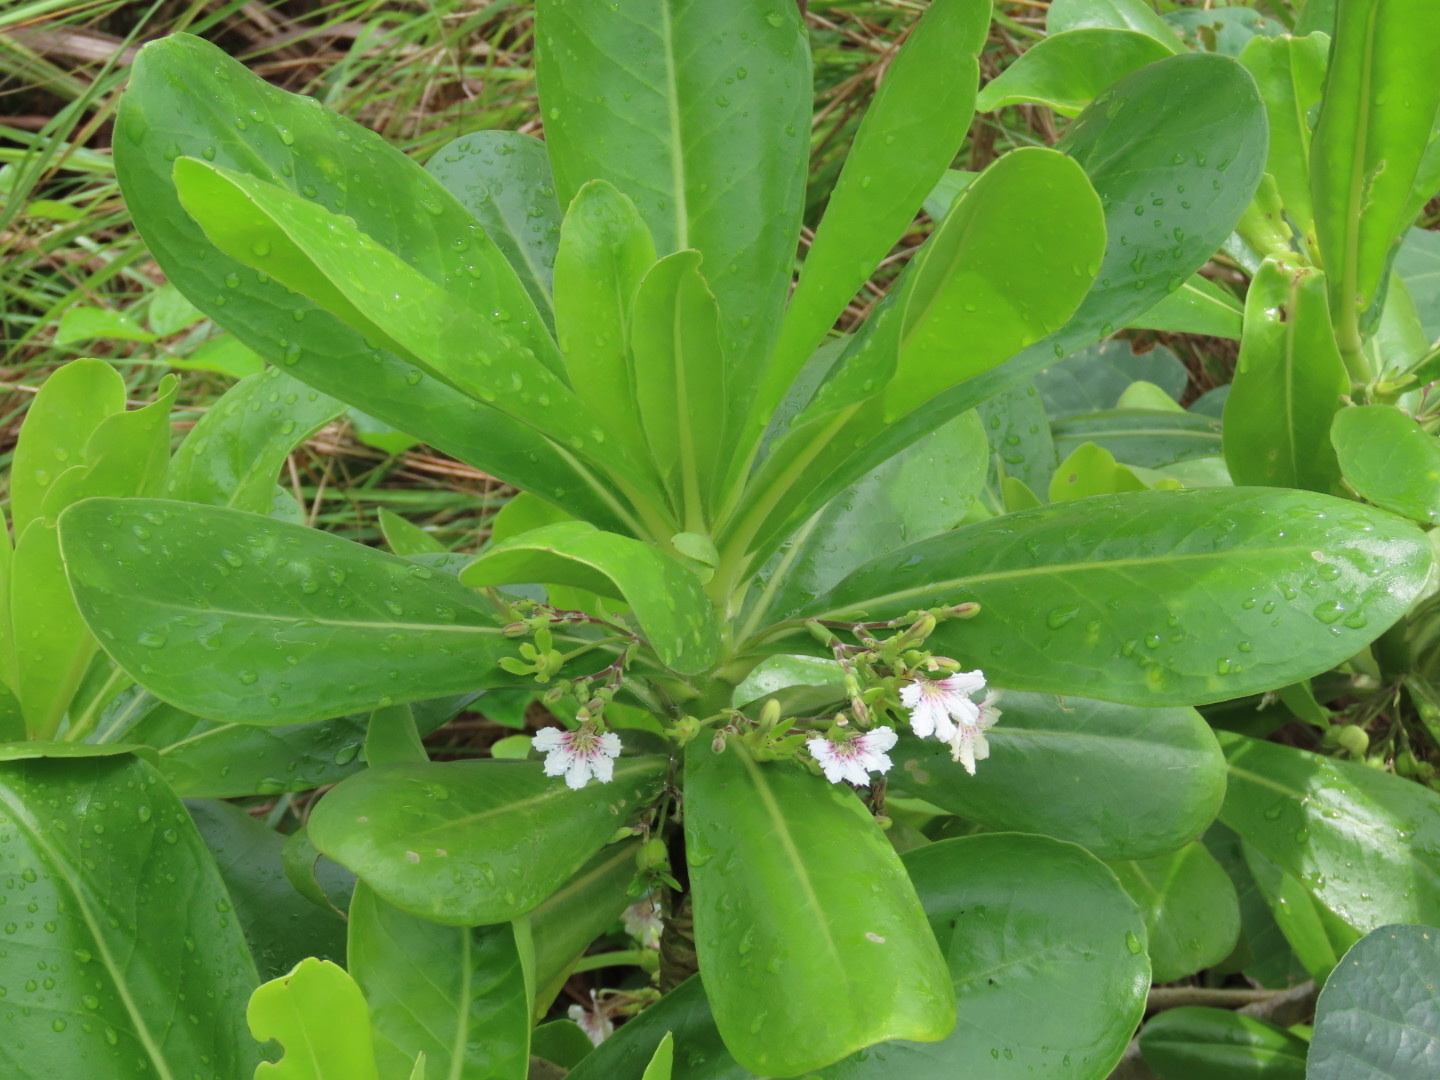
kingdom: Plantae
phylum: Tracheophyta
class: Magnoliopsida
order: Asterales
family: Goodeniaceae
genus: Scaevola
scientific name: Scaevola taccada
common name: Sea lettucetree
